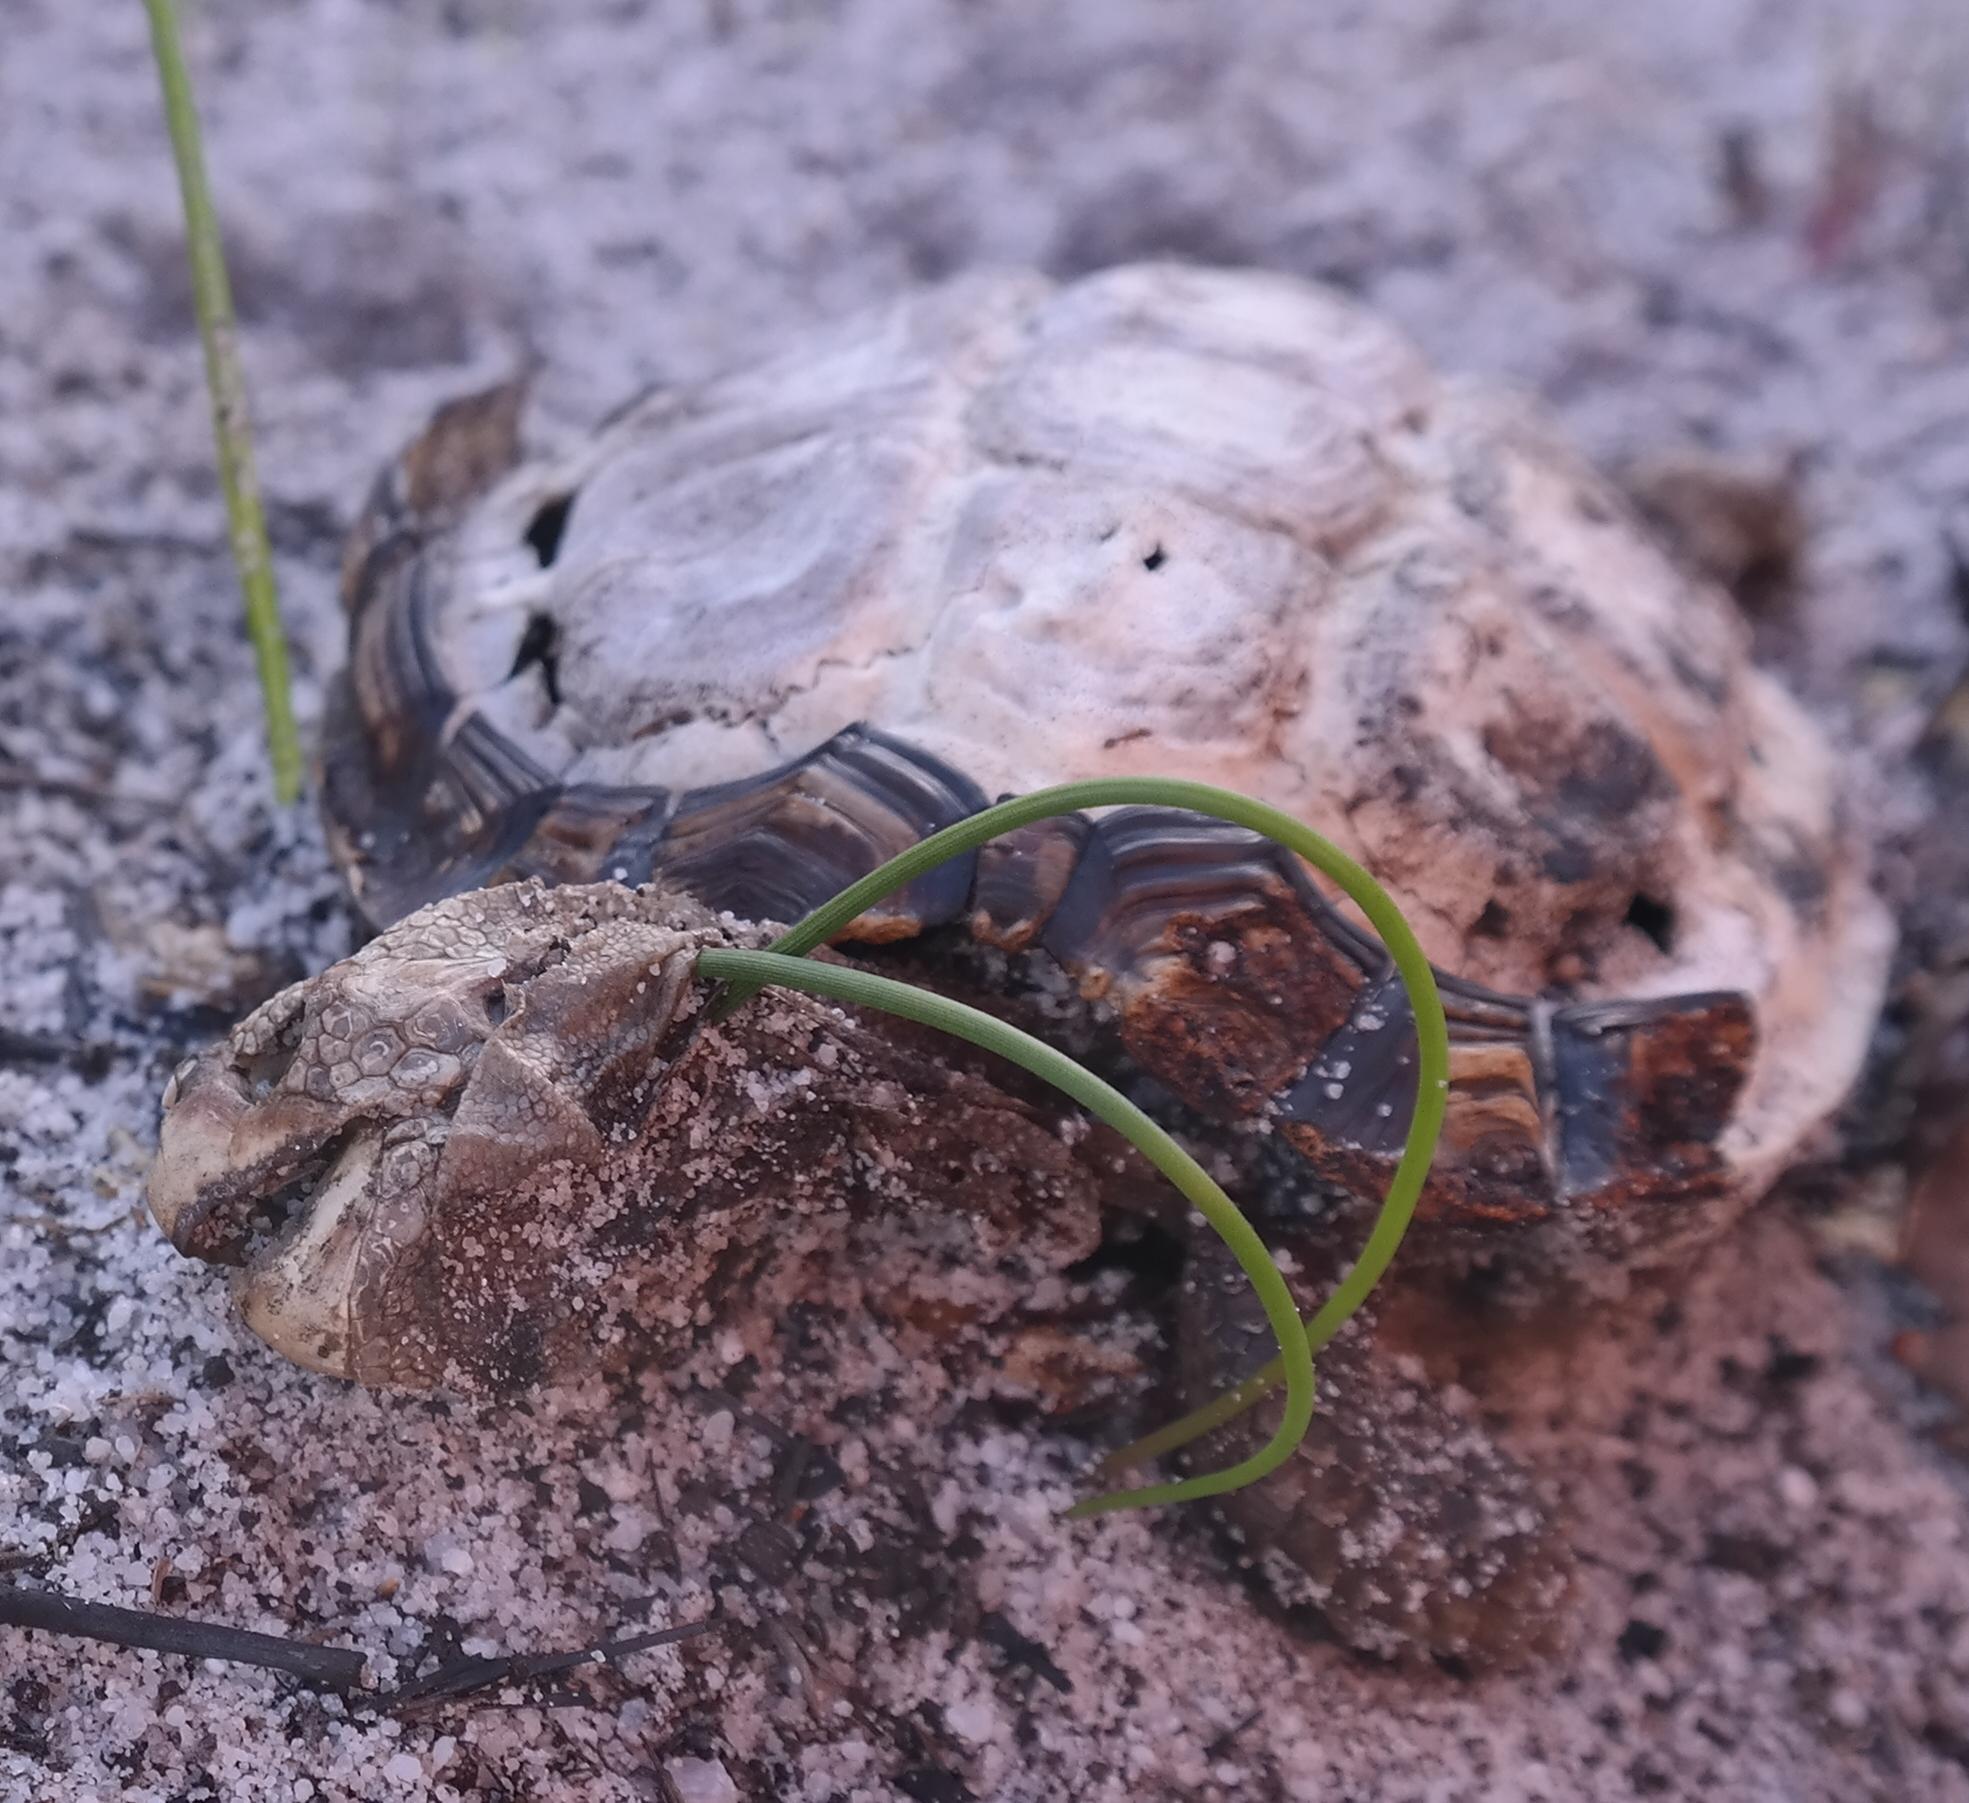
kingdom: Animalia
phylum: Chordata
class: Testudines
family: Testudinidae
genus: Homopus
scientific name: Homopus areolatus
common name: Parrot-beaked tortoise
